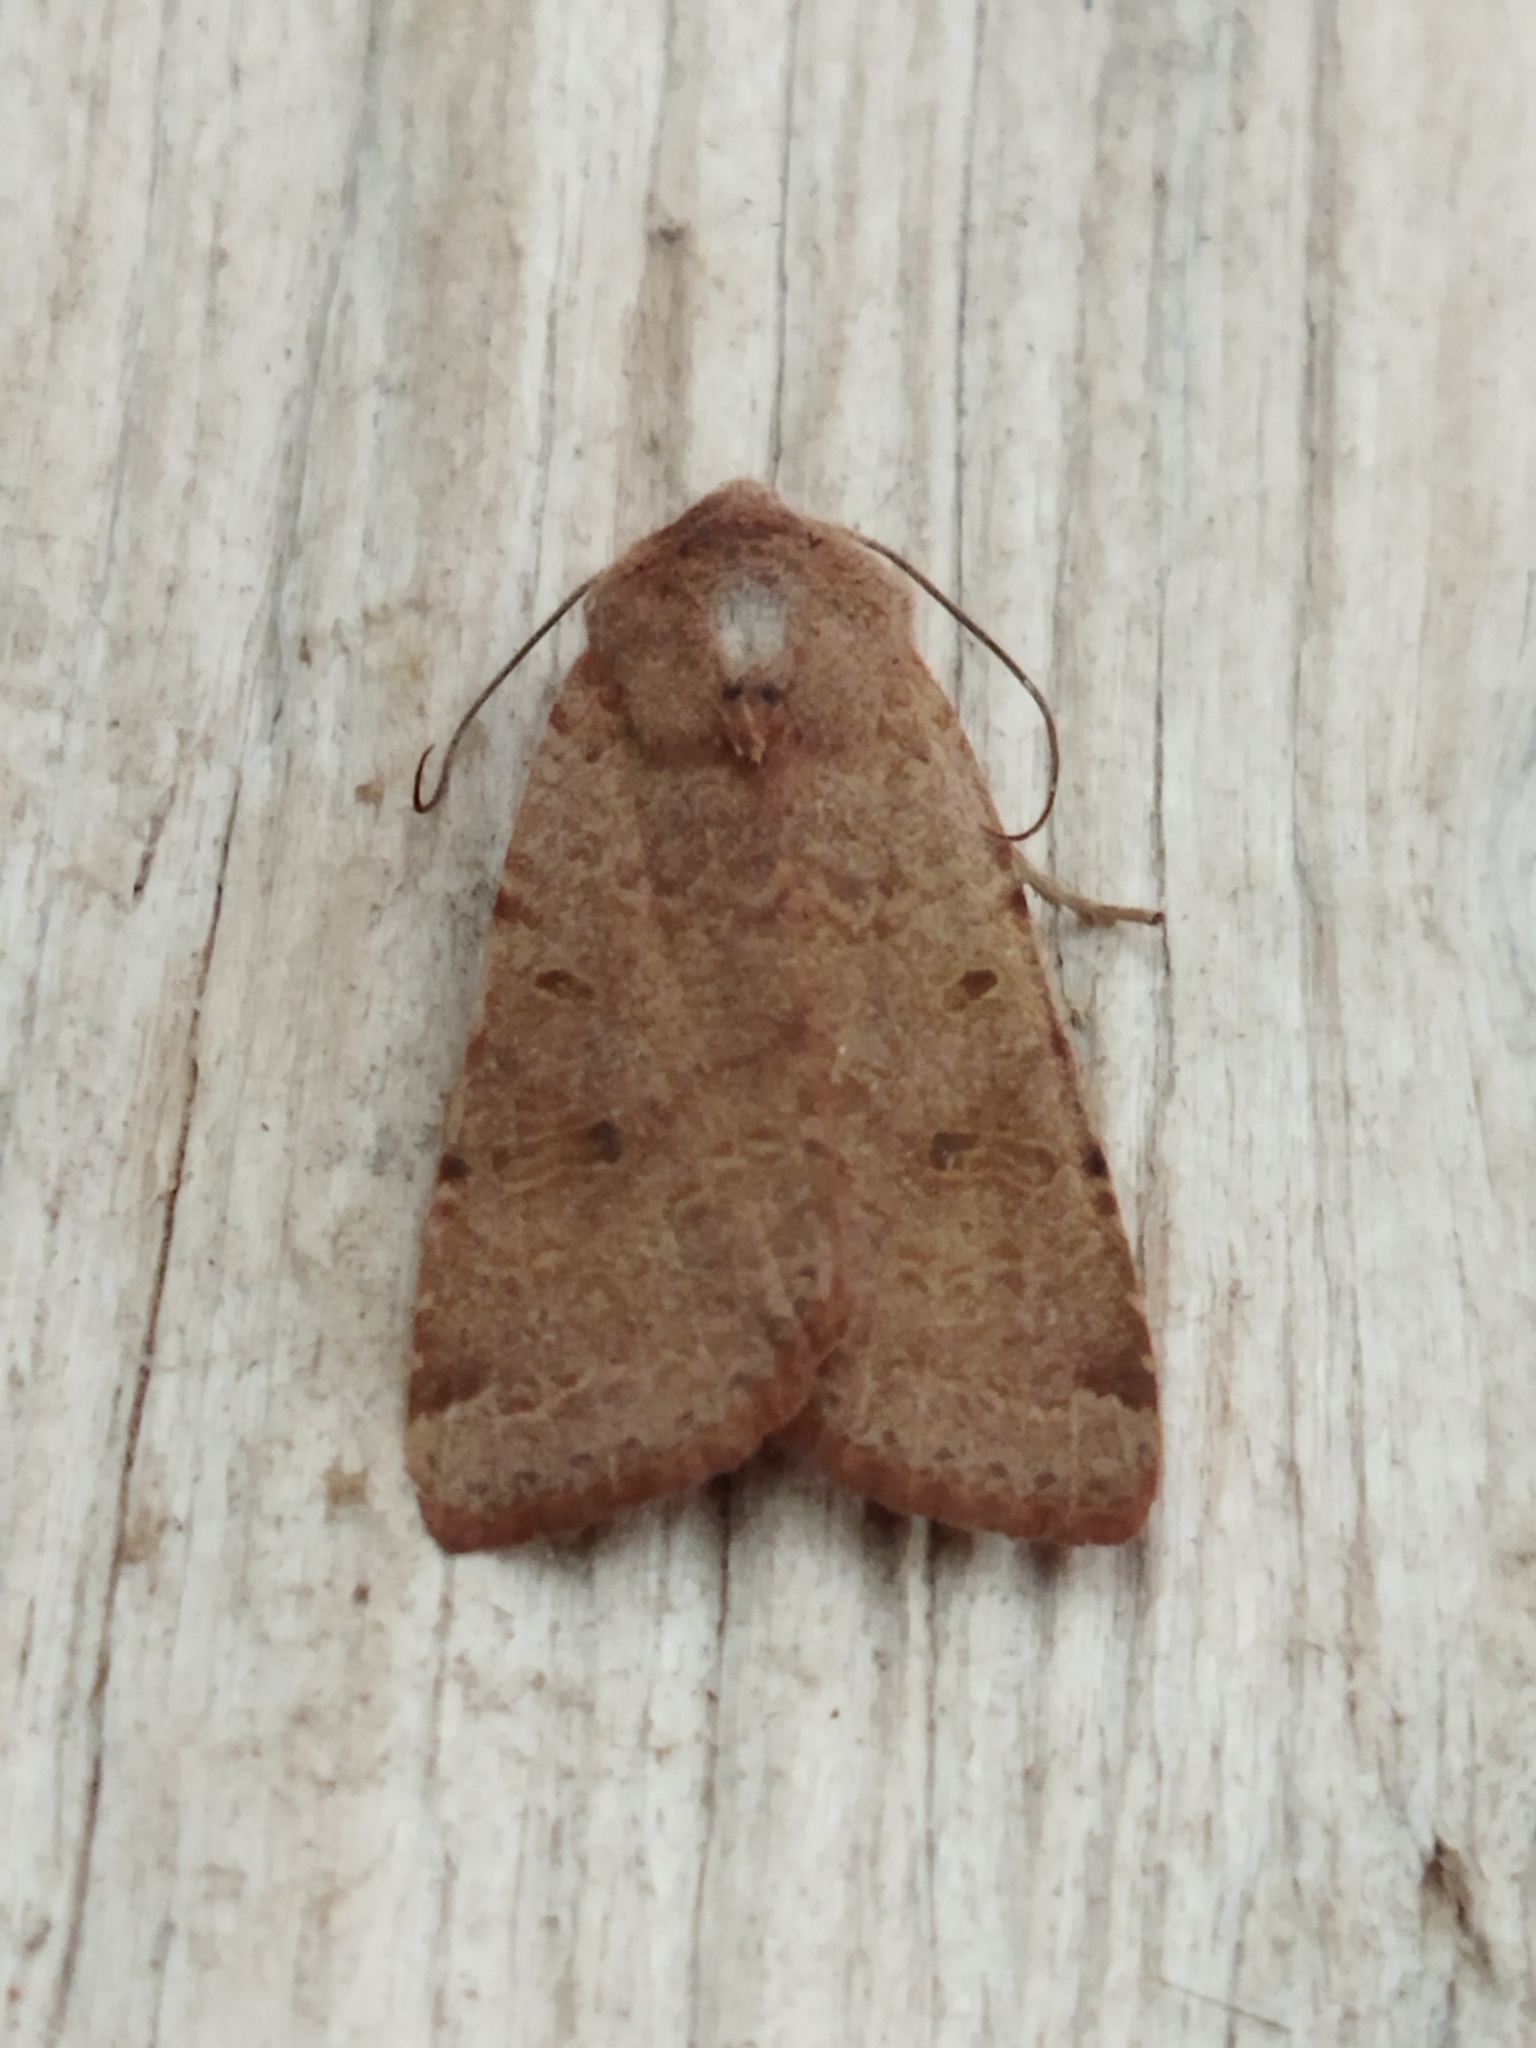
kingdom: Animalia
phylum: Arthropoda
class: Insecta
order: Lepidoptera
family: Noctuidae
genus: Agrochola
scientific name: Agrochola lychnidis
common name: Beaded chestnut
